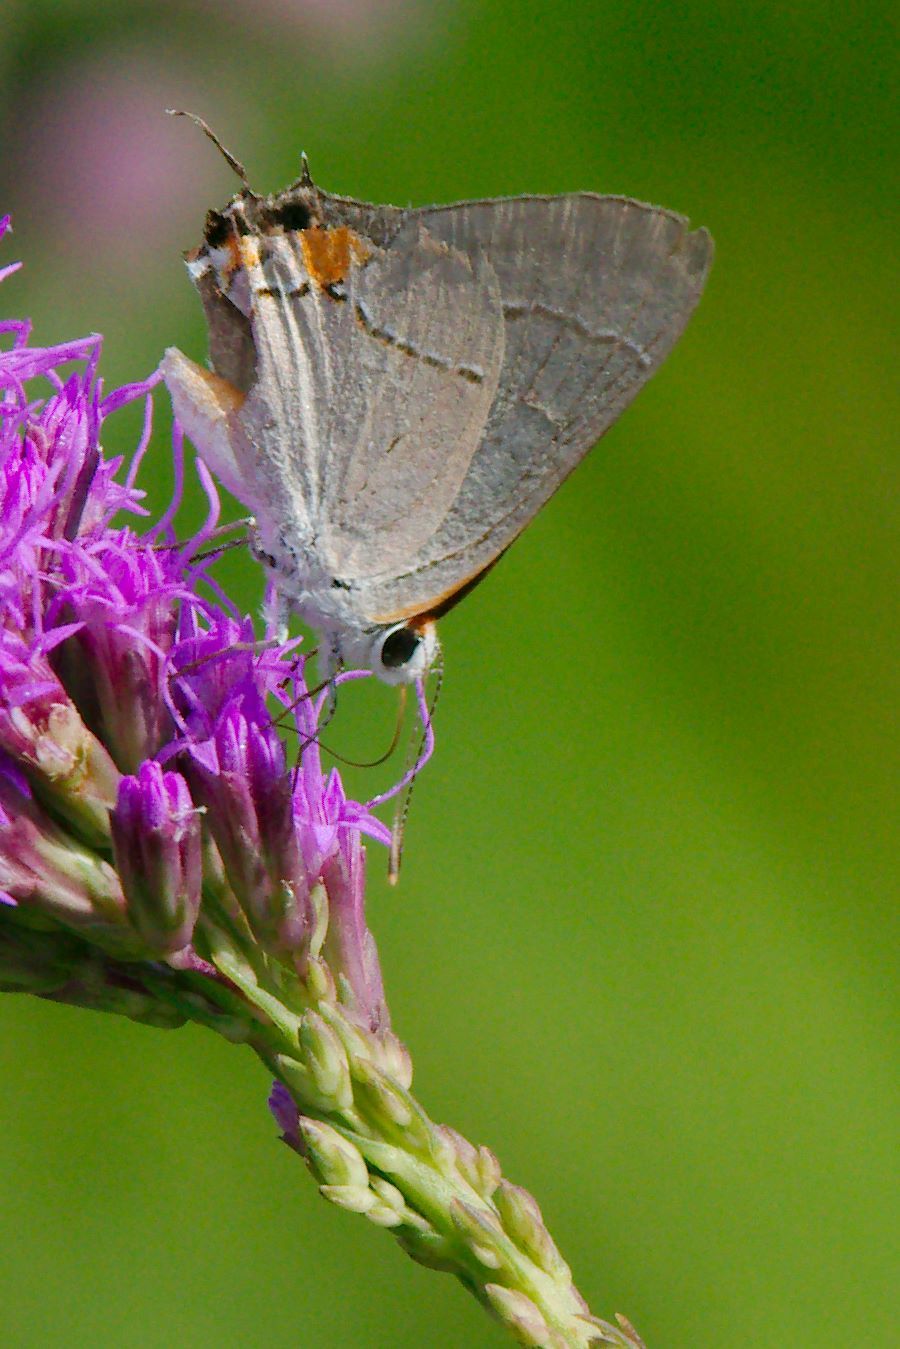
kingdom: Animalia
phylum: Arthropoda
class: Insecta
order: Lepidoptera
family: Lycaenidae
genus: Strymon
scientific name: Strymon melinus
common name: Gray hairstreak
